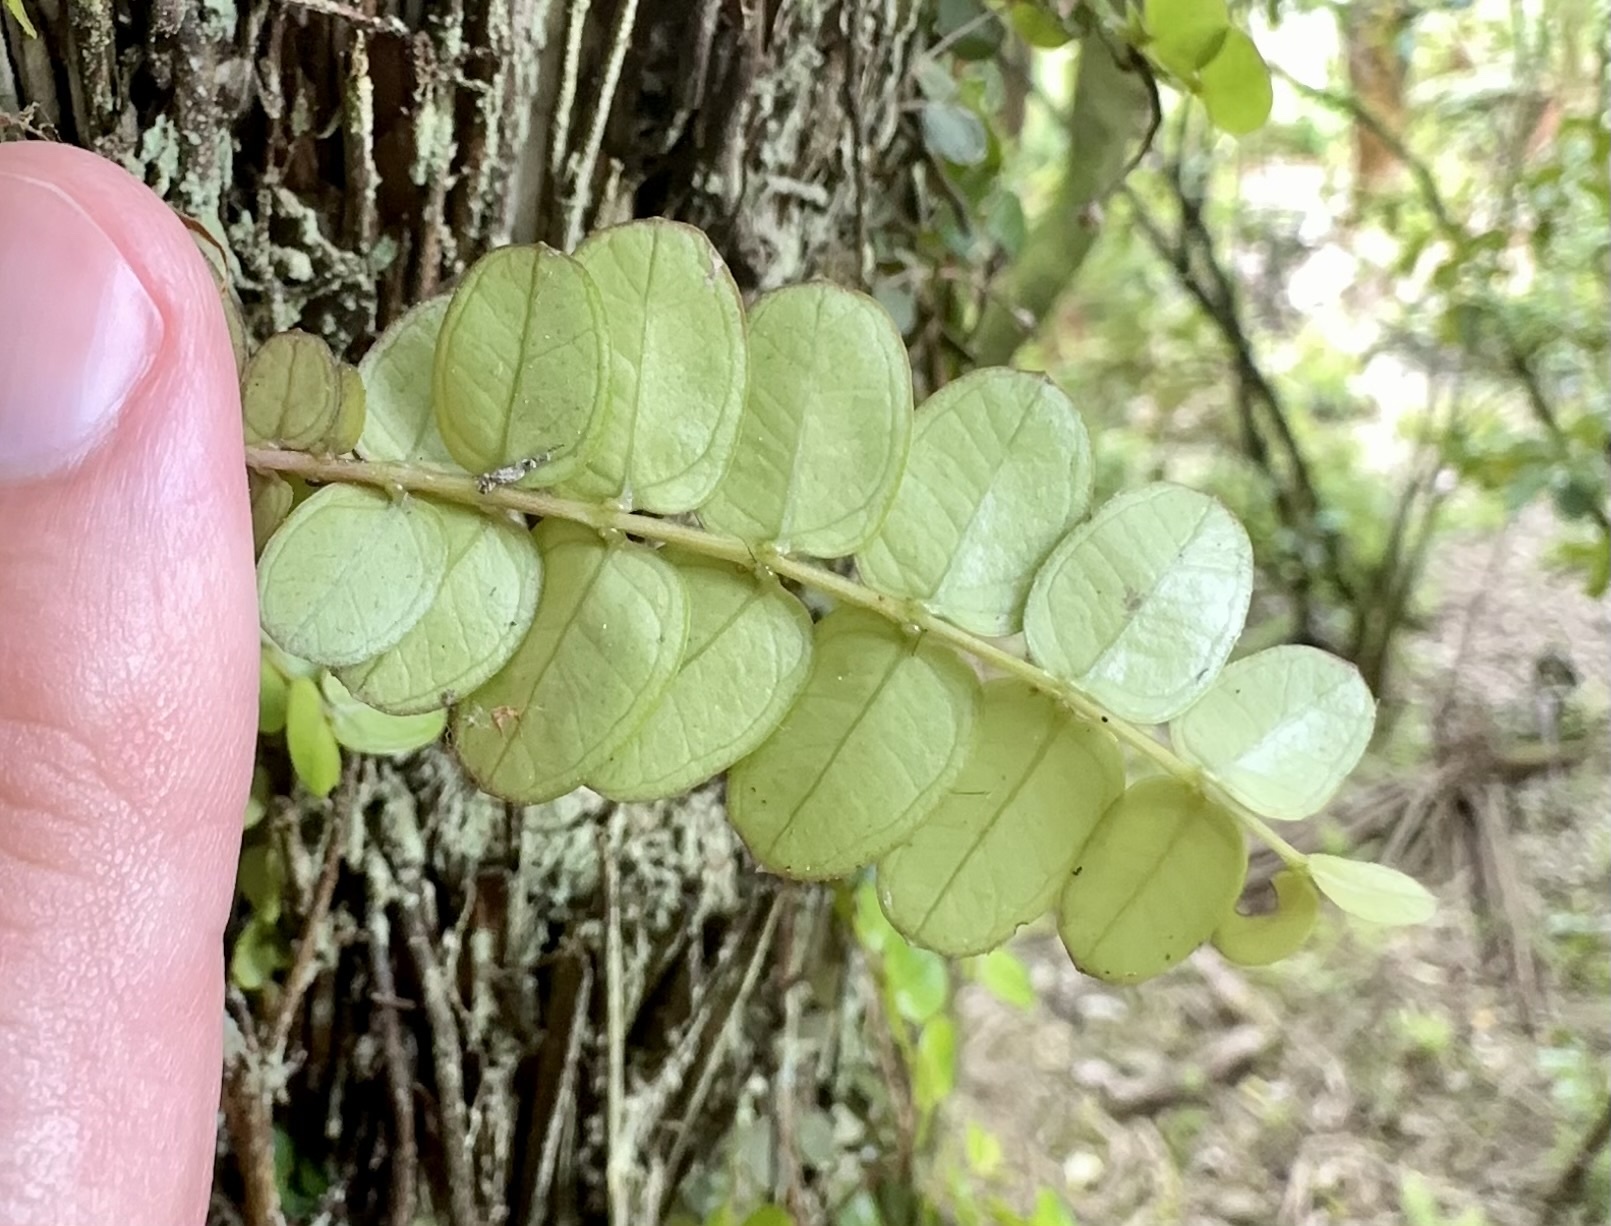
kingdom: Plantae
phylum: Tracheophyta
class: Magnoliopsida
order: Myrtales
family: Myrtaceae
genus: Metrosideros
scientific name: Metrosideros diffusa
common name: Small ratavine
